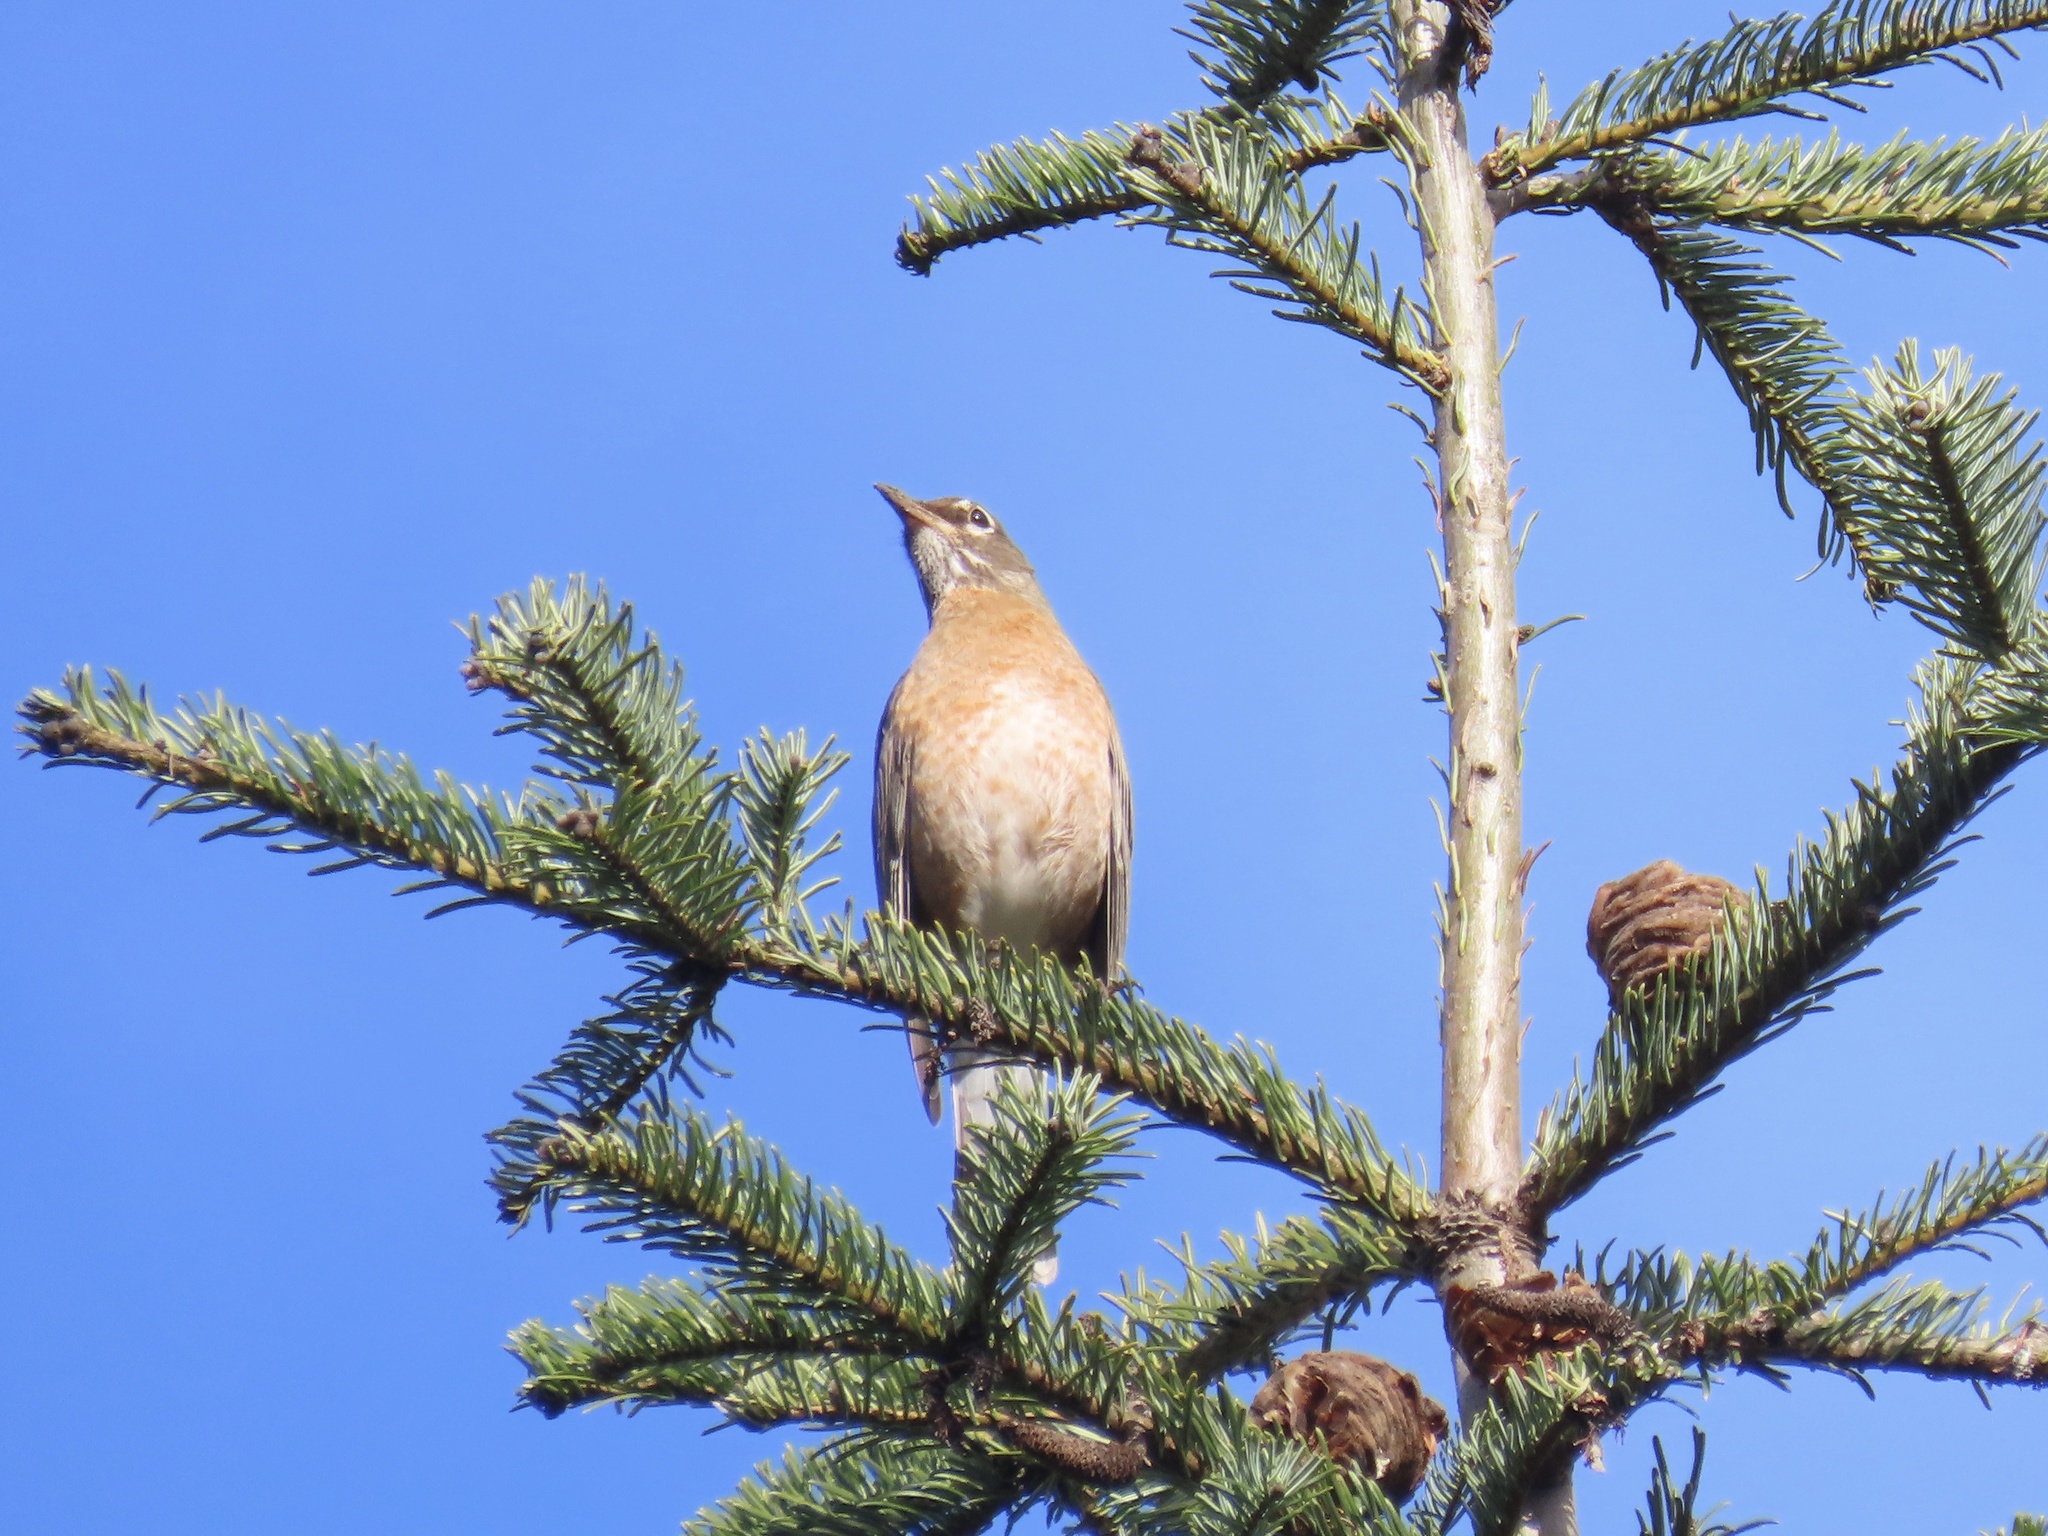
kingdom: Animalia
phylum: Chordata
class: Aves
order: Passeriformes
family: Turdidae
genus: Turdus
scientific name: Turdus migratorius
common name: American robin
